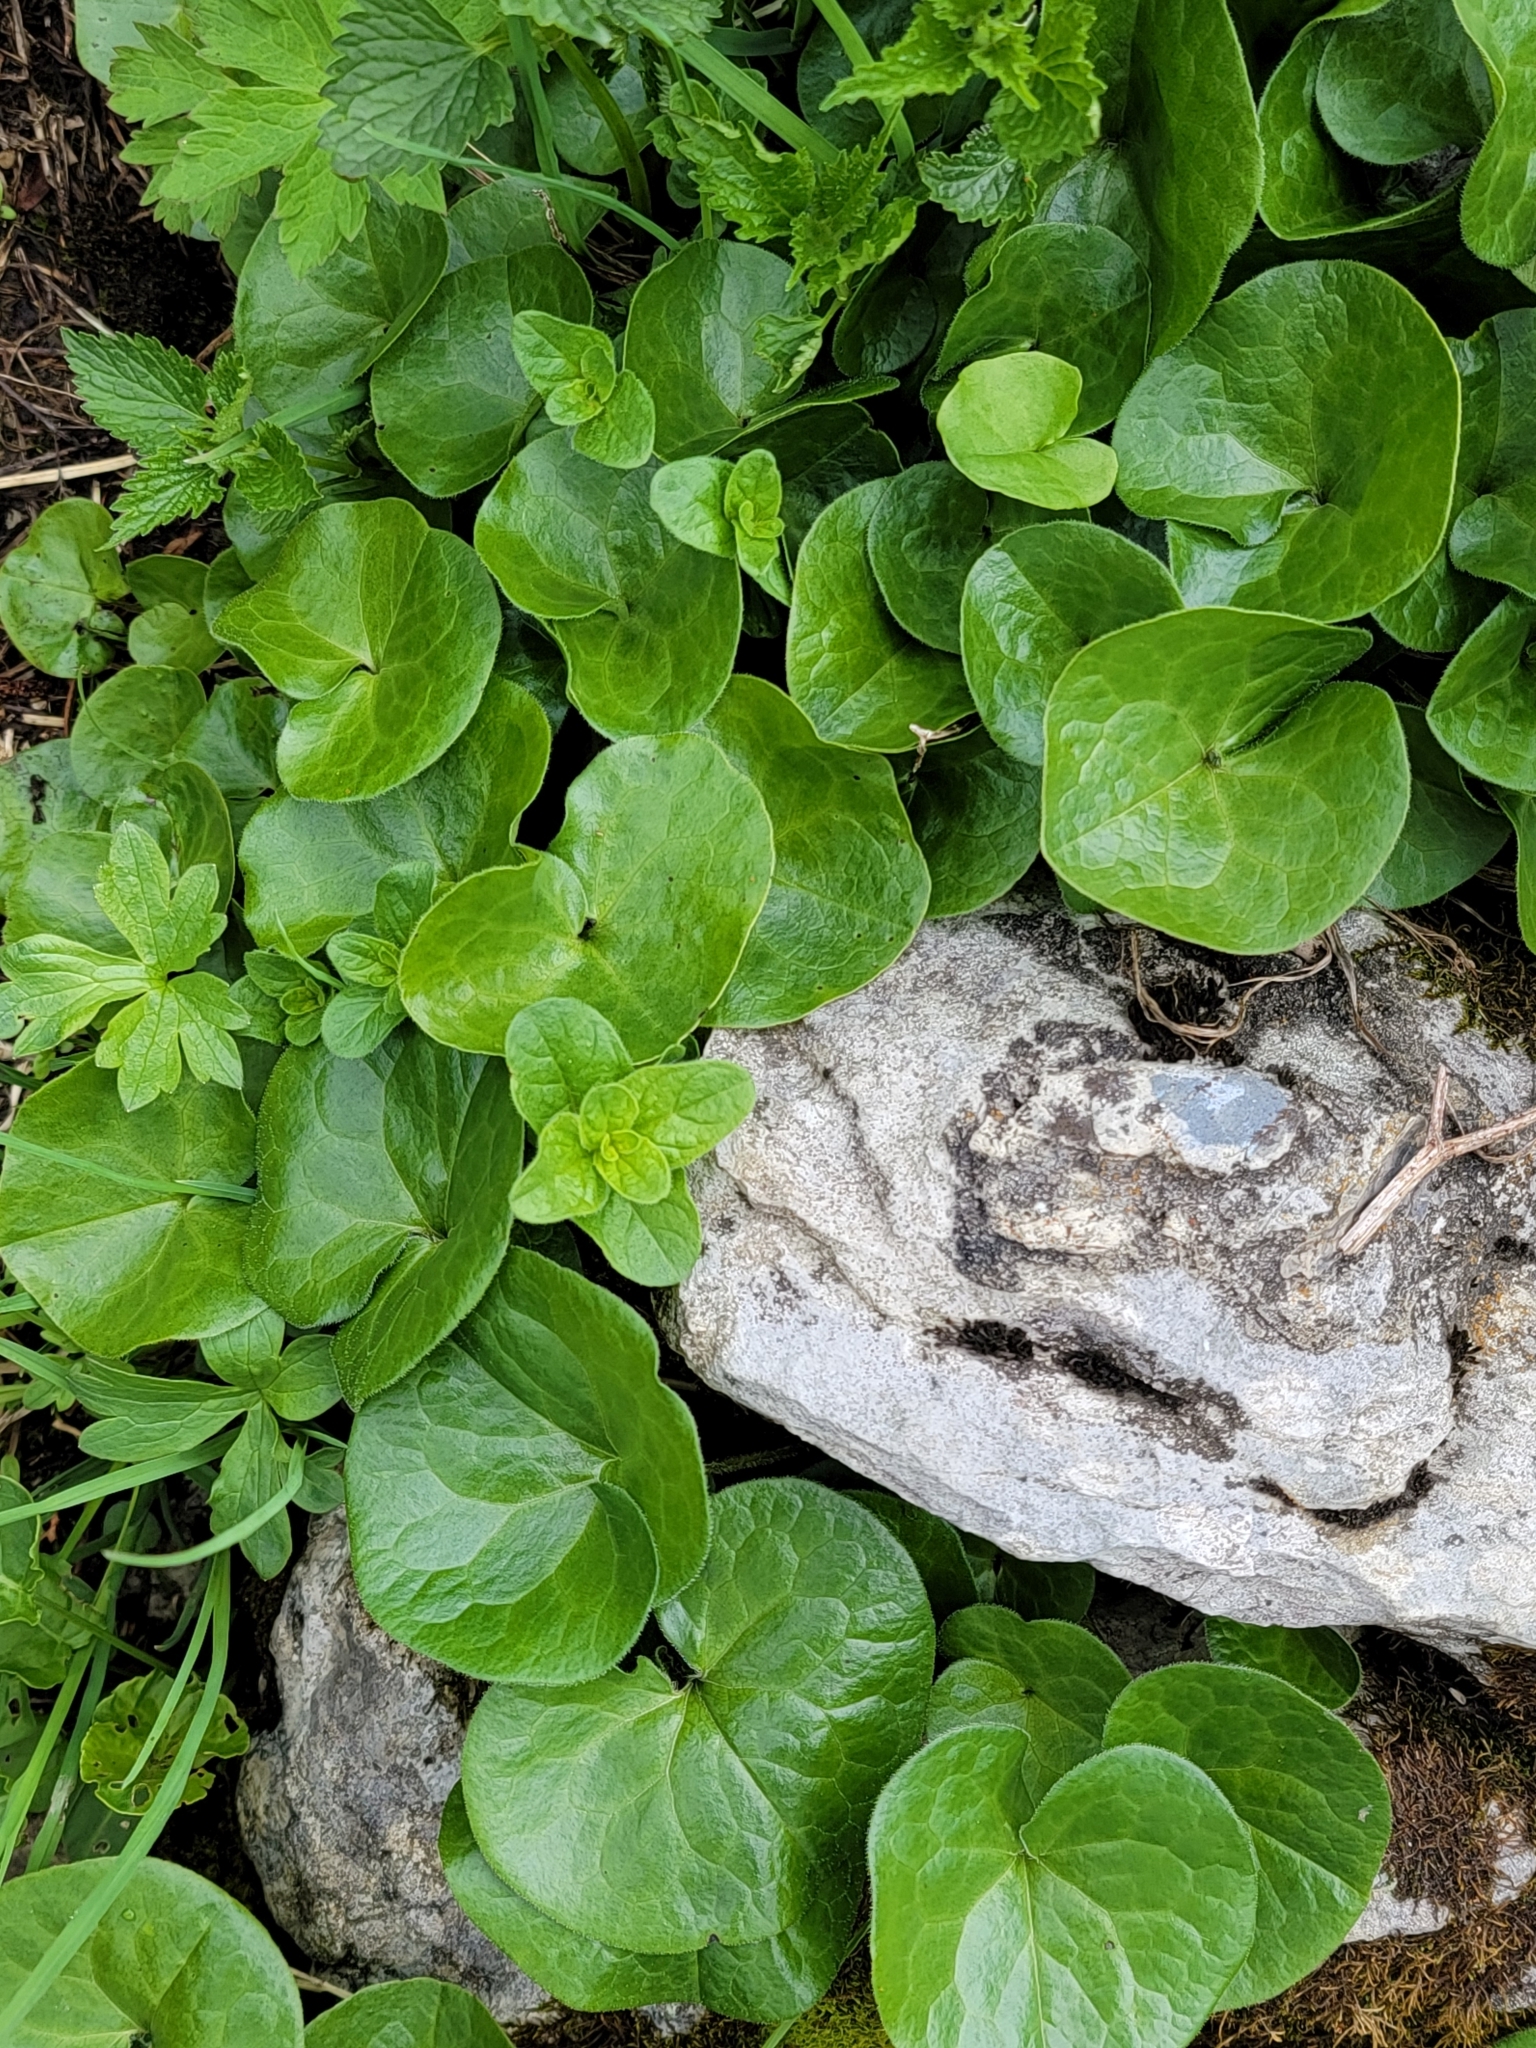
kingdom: Plantae
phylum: Tracheophyta
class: Magnoliopsida
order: Piperales
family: Aristolochiaceae
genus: Asarum
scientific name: Asarum europaeum
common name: Asarabacca
